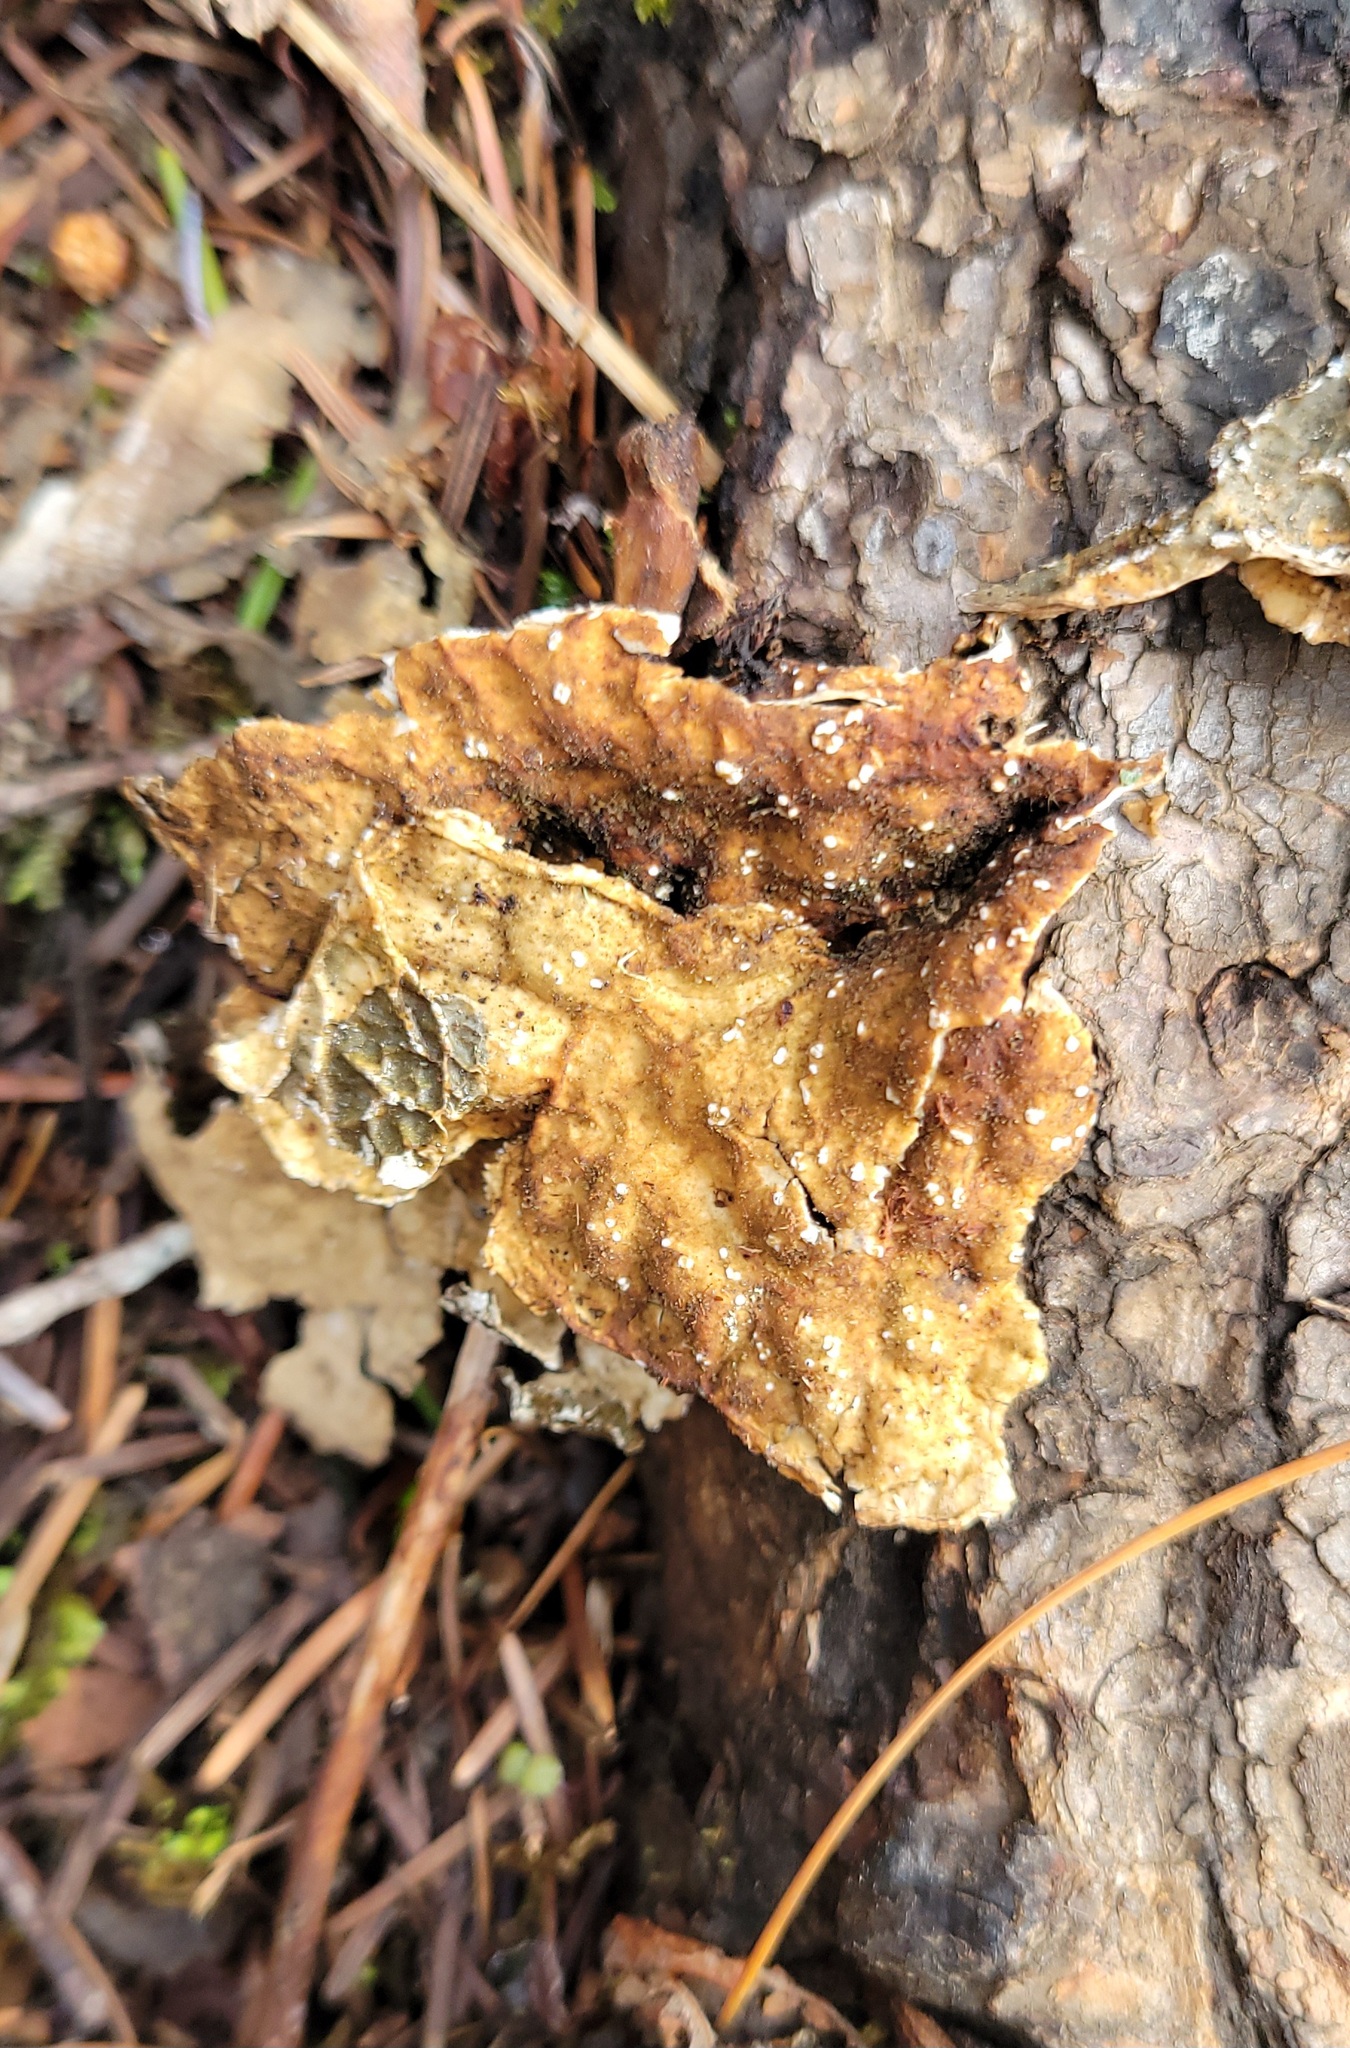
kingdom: Fungi
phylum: Ascomycota
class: Lecanoromycetes
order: Peltigerales
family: Lobariaceae
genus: Lobaria
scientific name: Lobaria anomala
